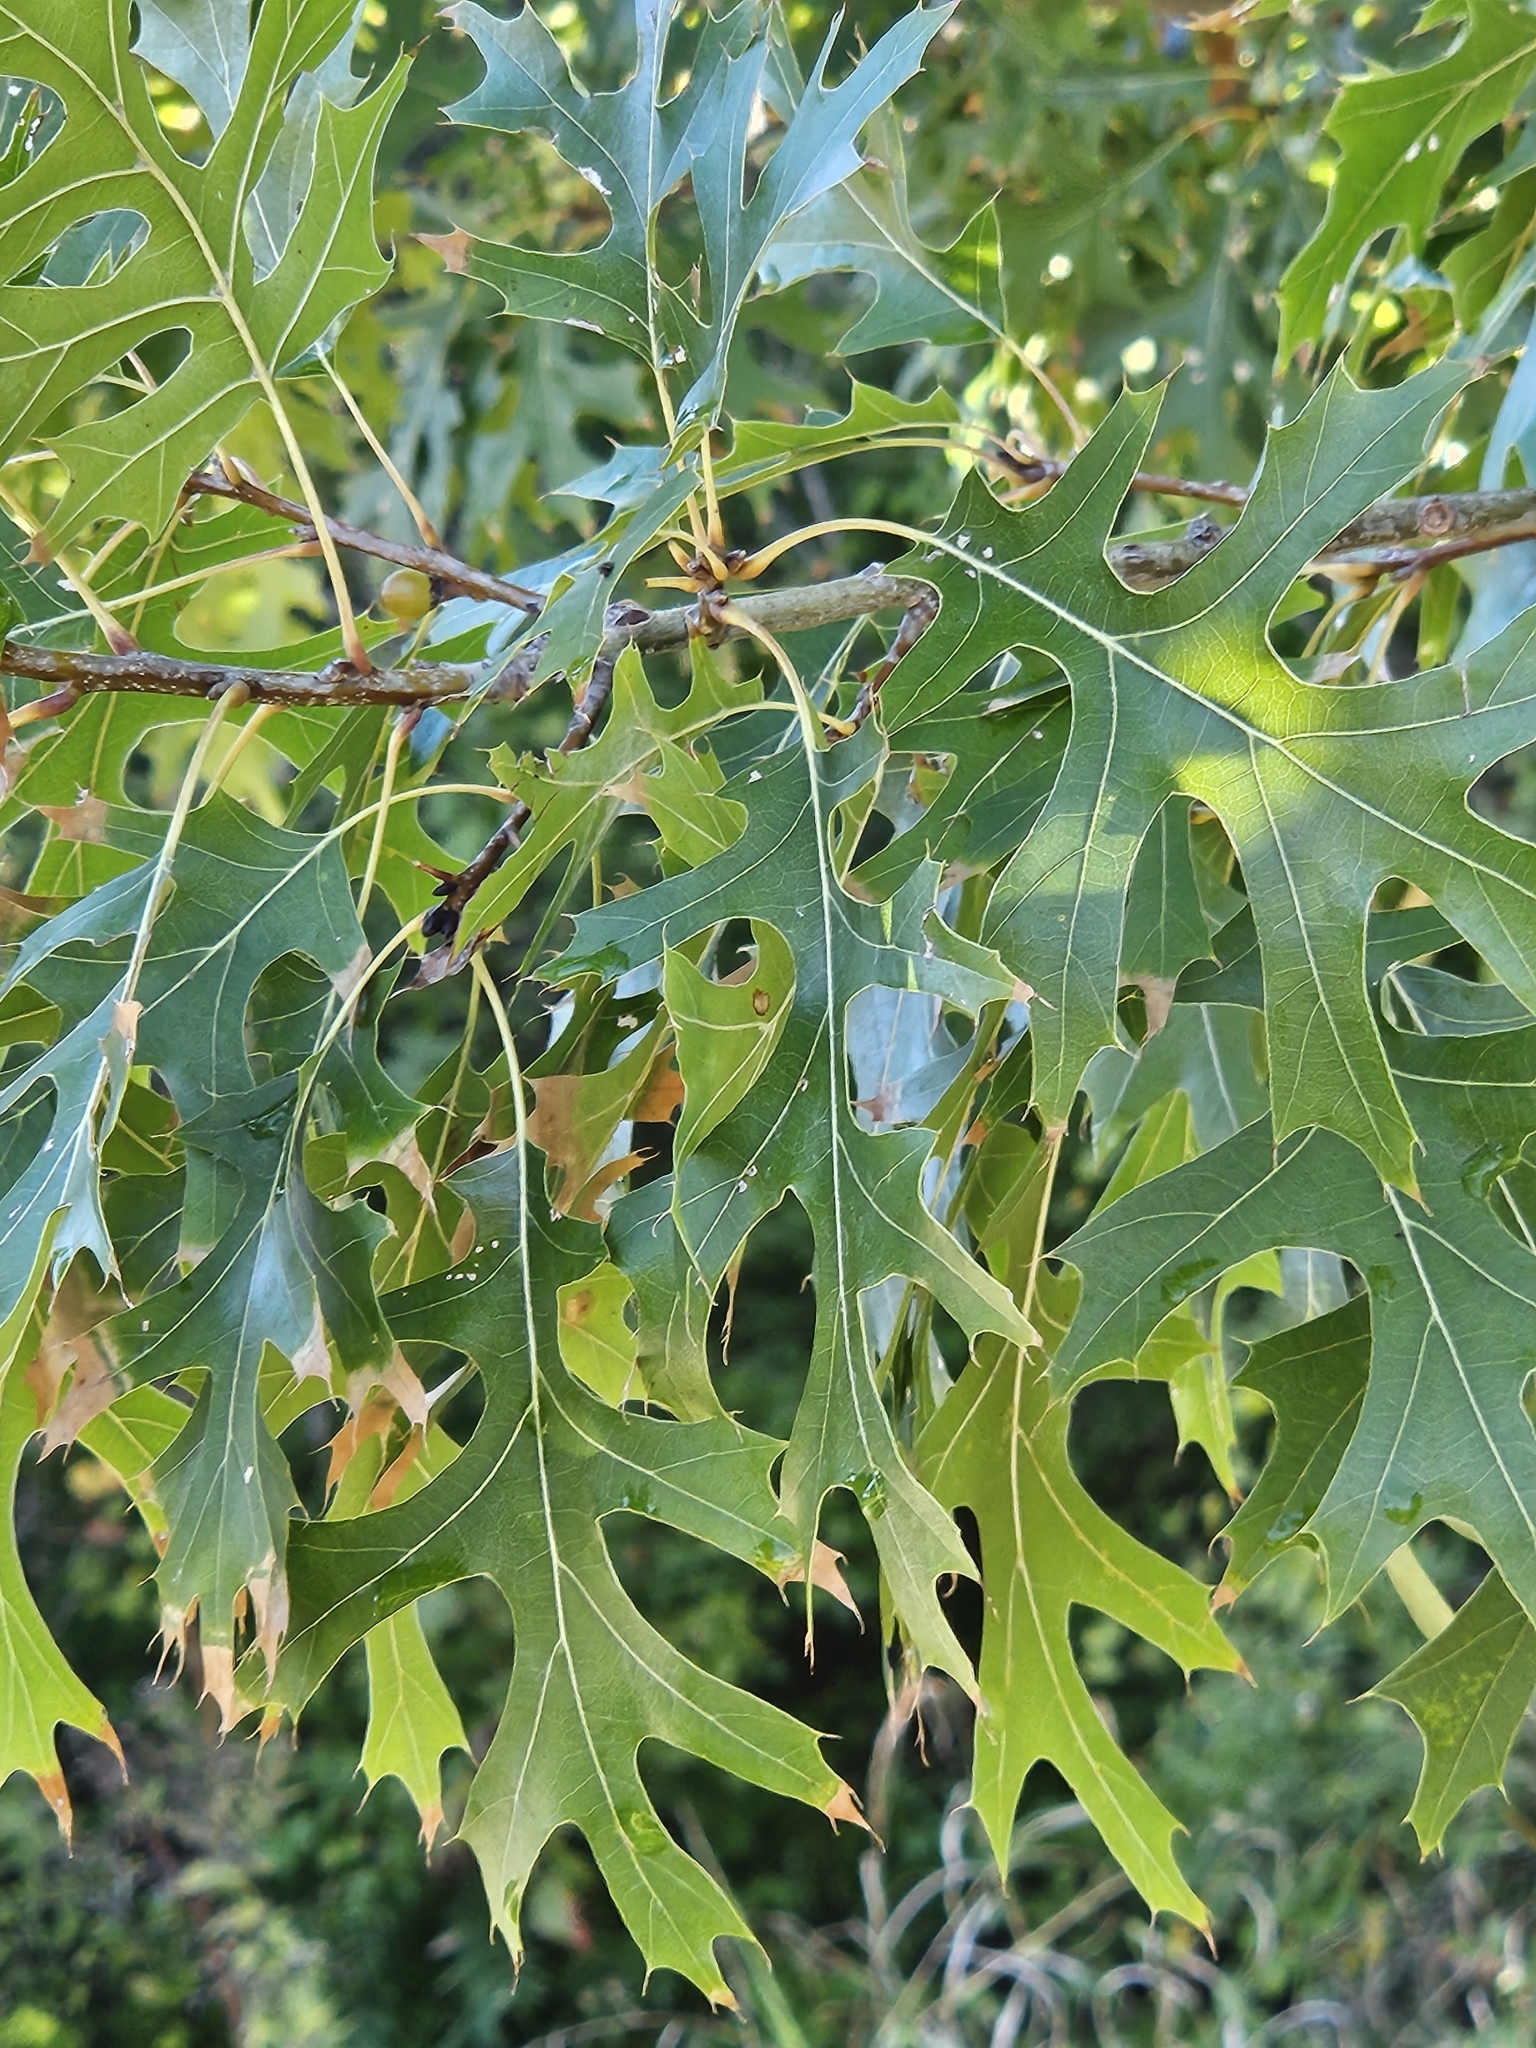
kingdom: Plantae
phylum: Tracheophyta
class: Magnoliopsida
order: Fagales
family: Fagaceae
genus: Quercus
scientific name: Quercus shumardii
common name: Shumard oak
